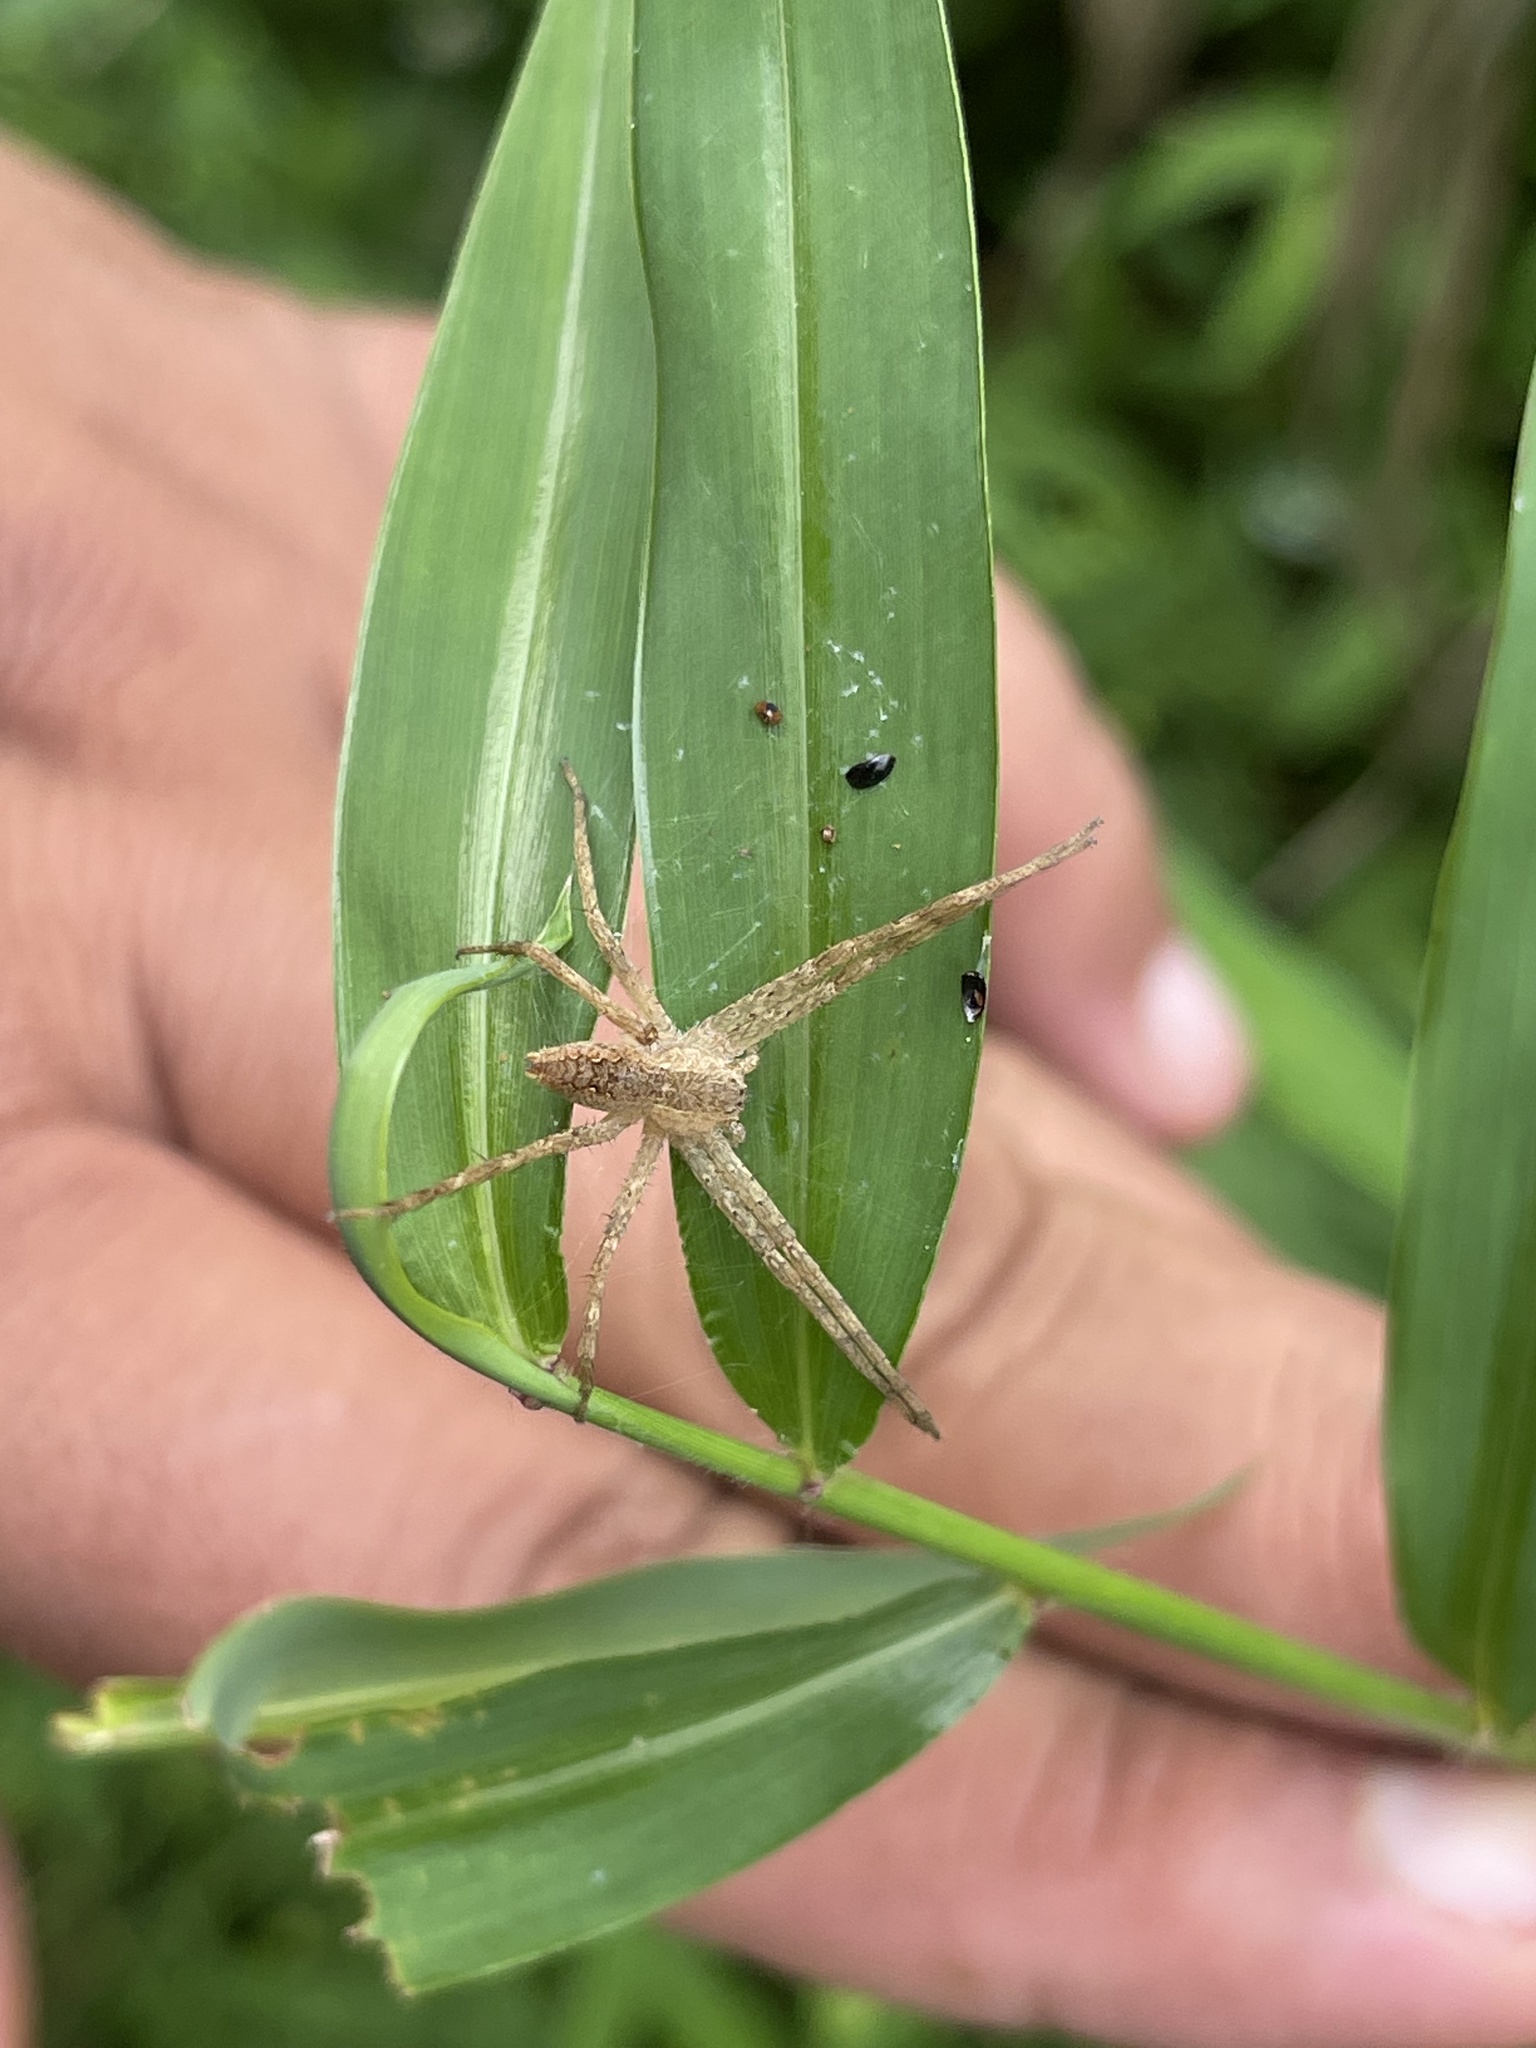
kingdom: Animalia
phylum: Arthropoda
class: Arachnida
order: Araneae
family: Pisauridae
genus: Pisaurina
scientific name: Pisaurina mira
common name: American nursery web spider
